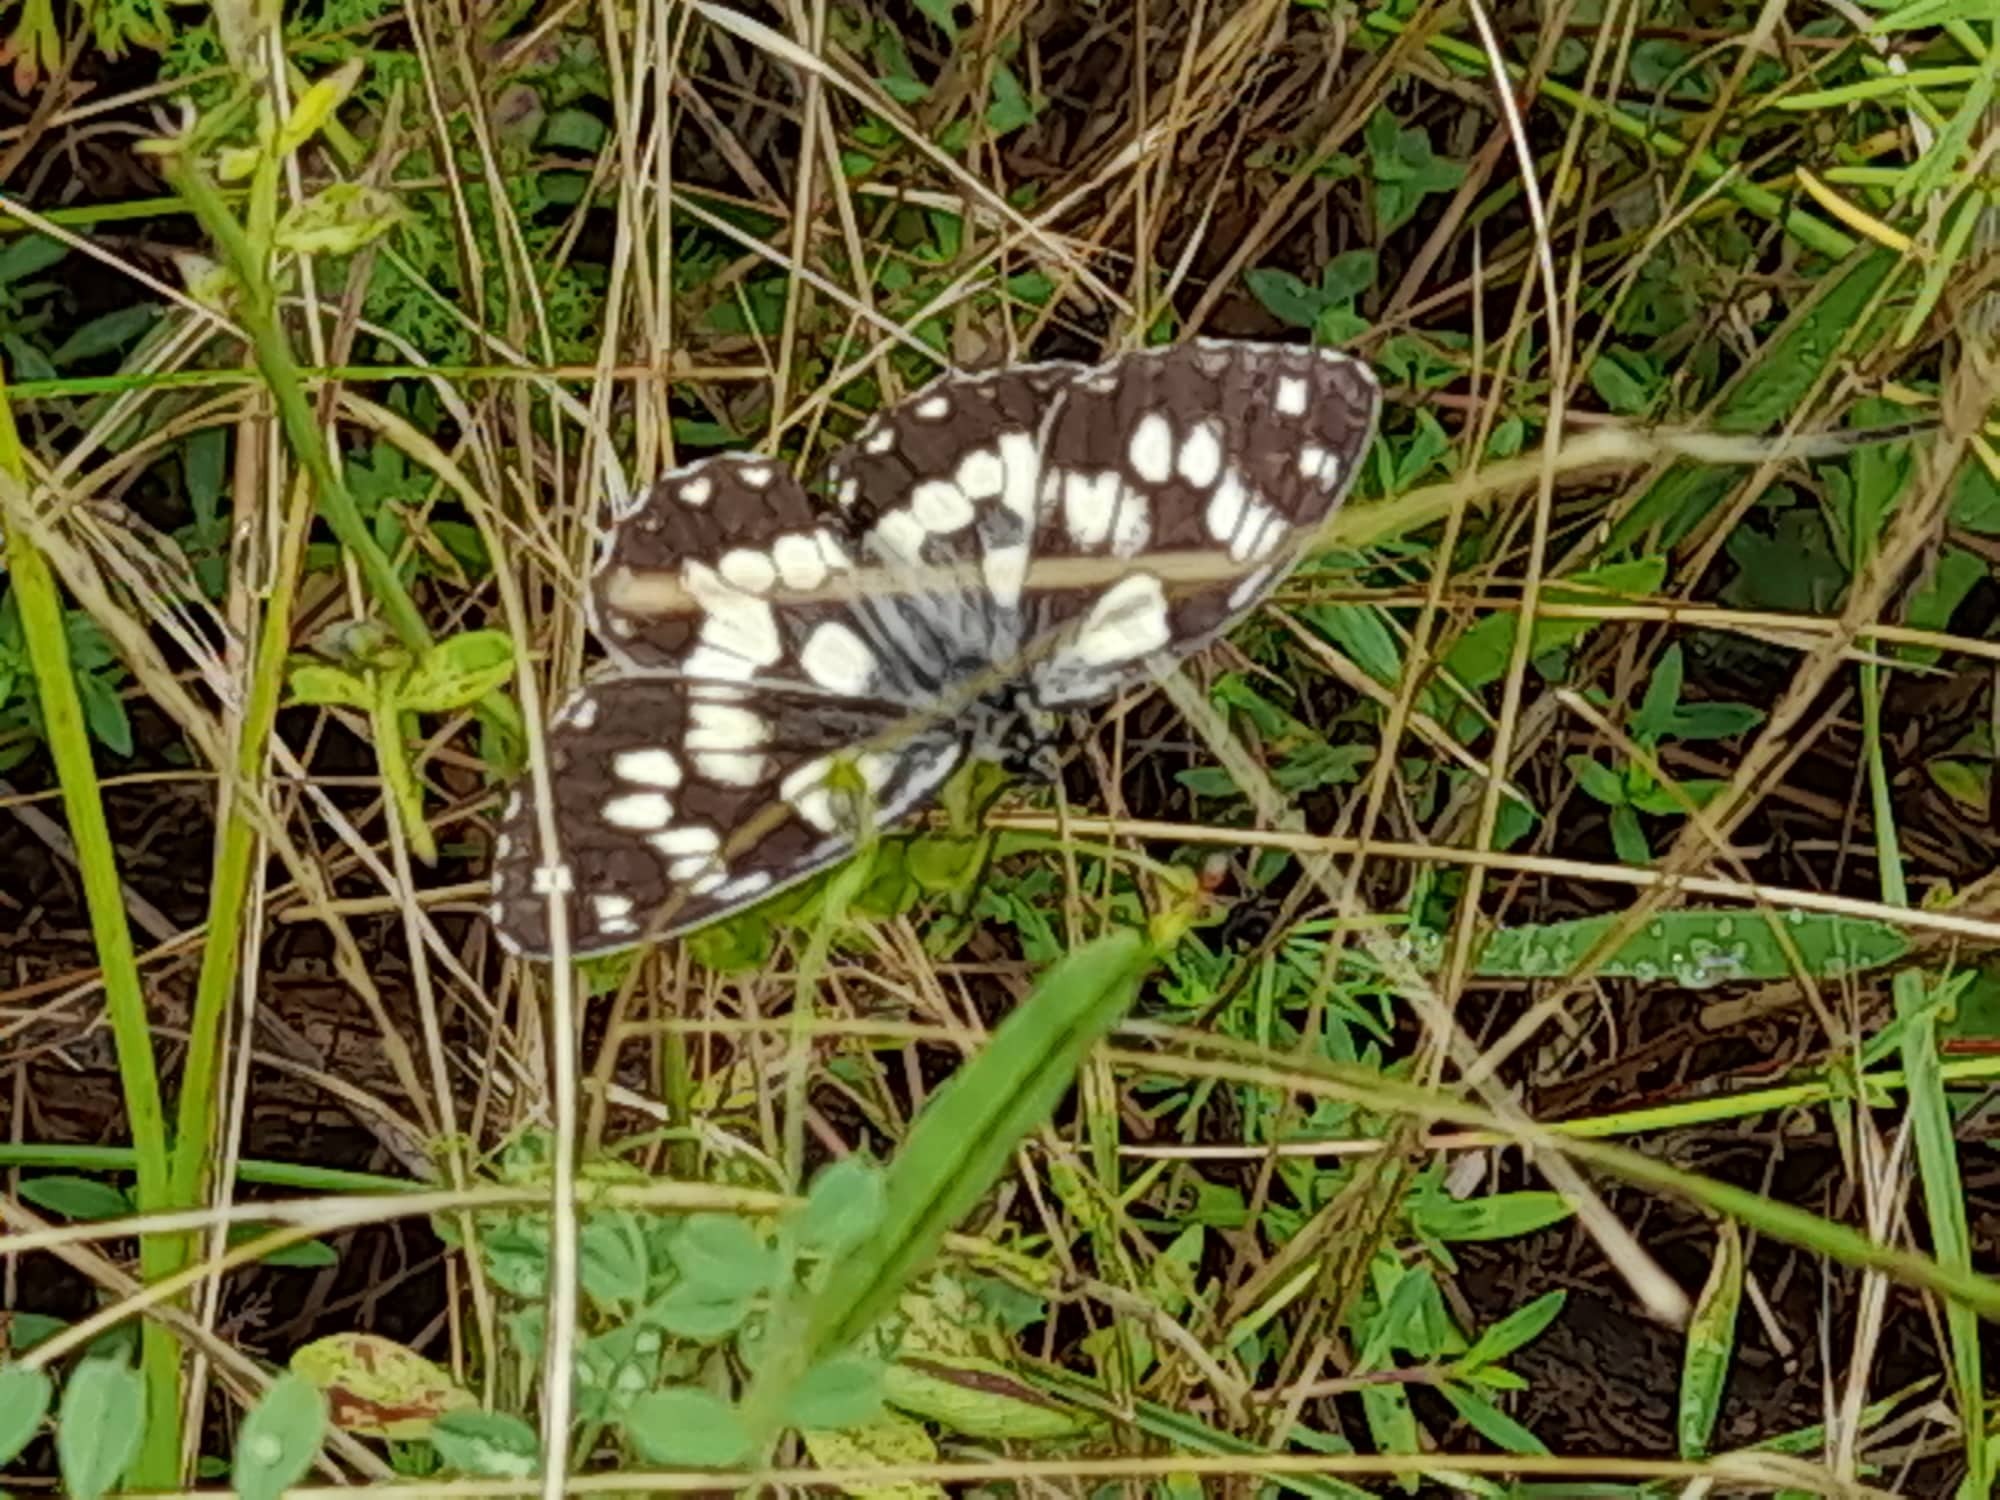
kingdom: Animalia
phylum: Arthropoda
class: Insecta
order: Lepidoptera
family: Nymphalidae
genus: Melanargia
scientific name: Melanargia galathea
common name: Marbled white
